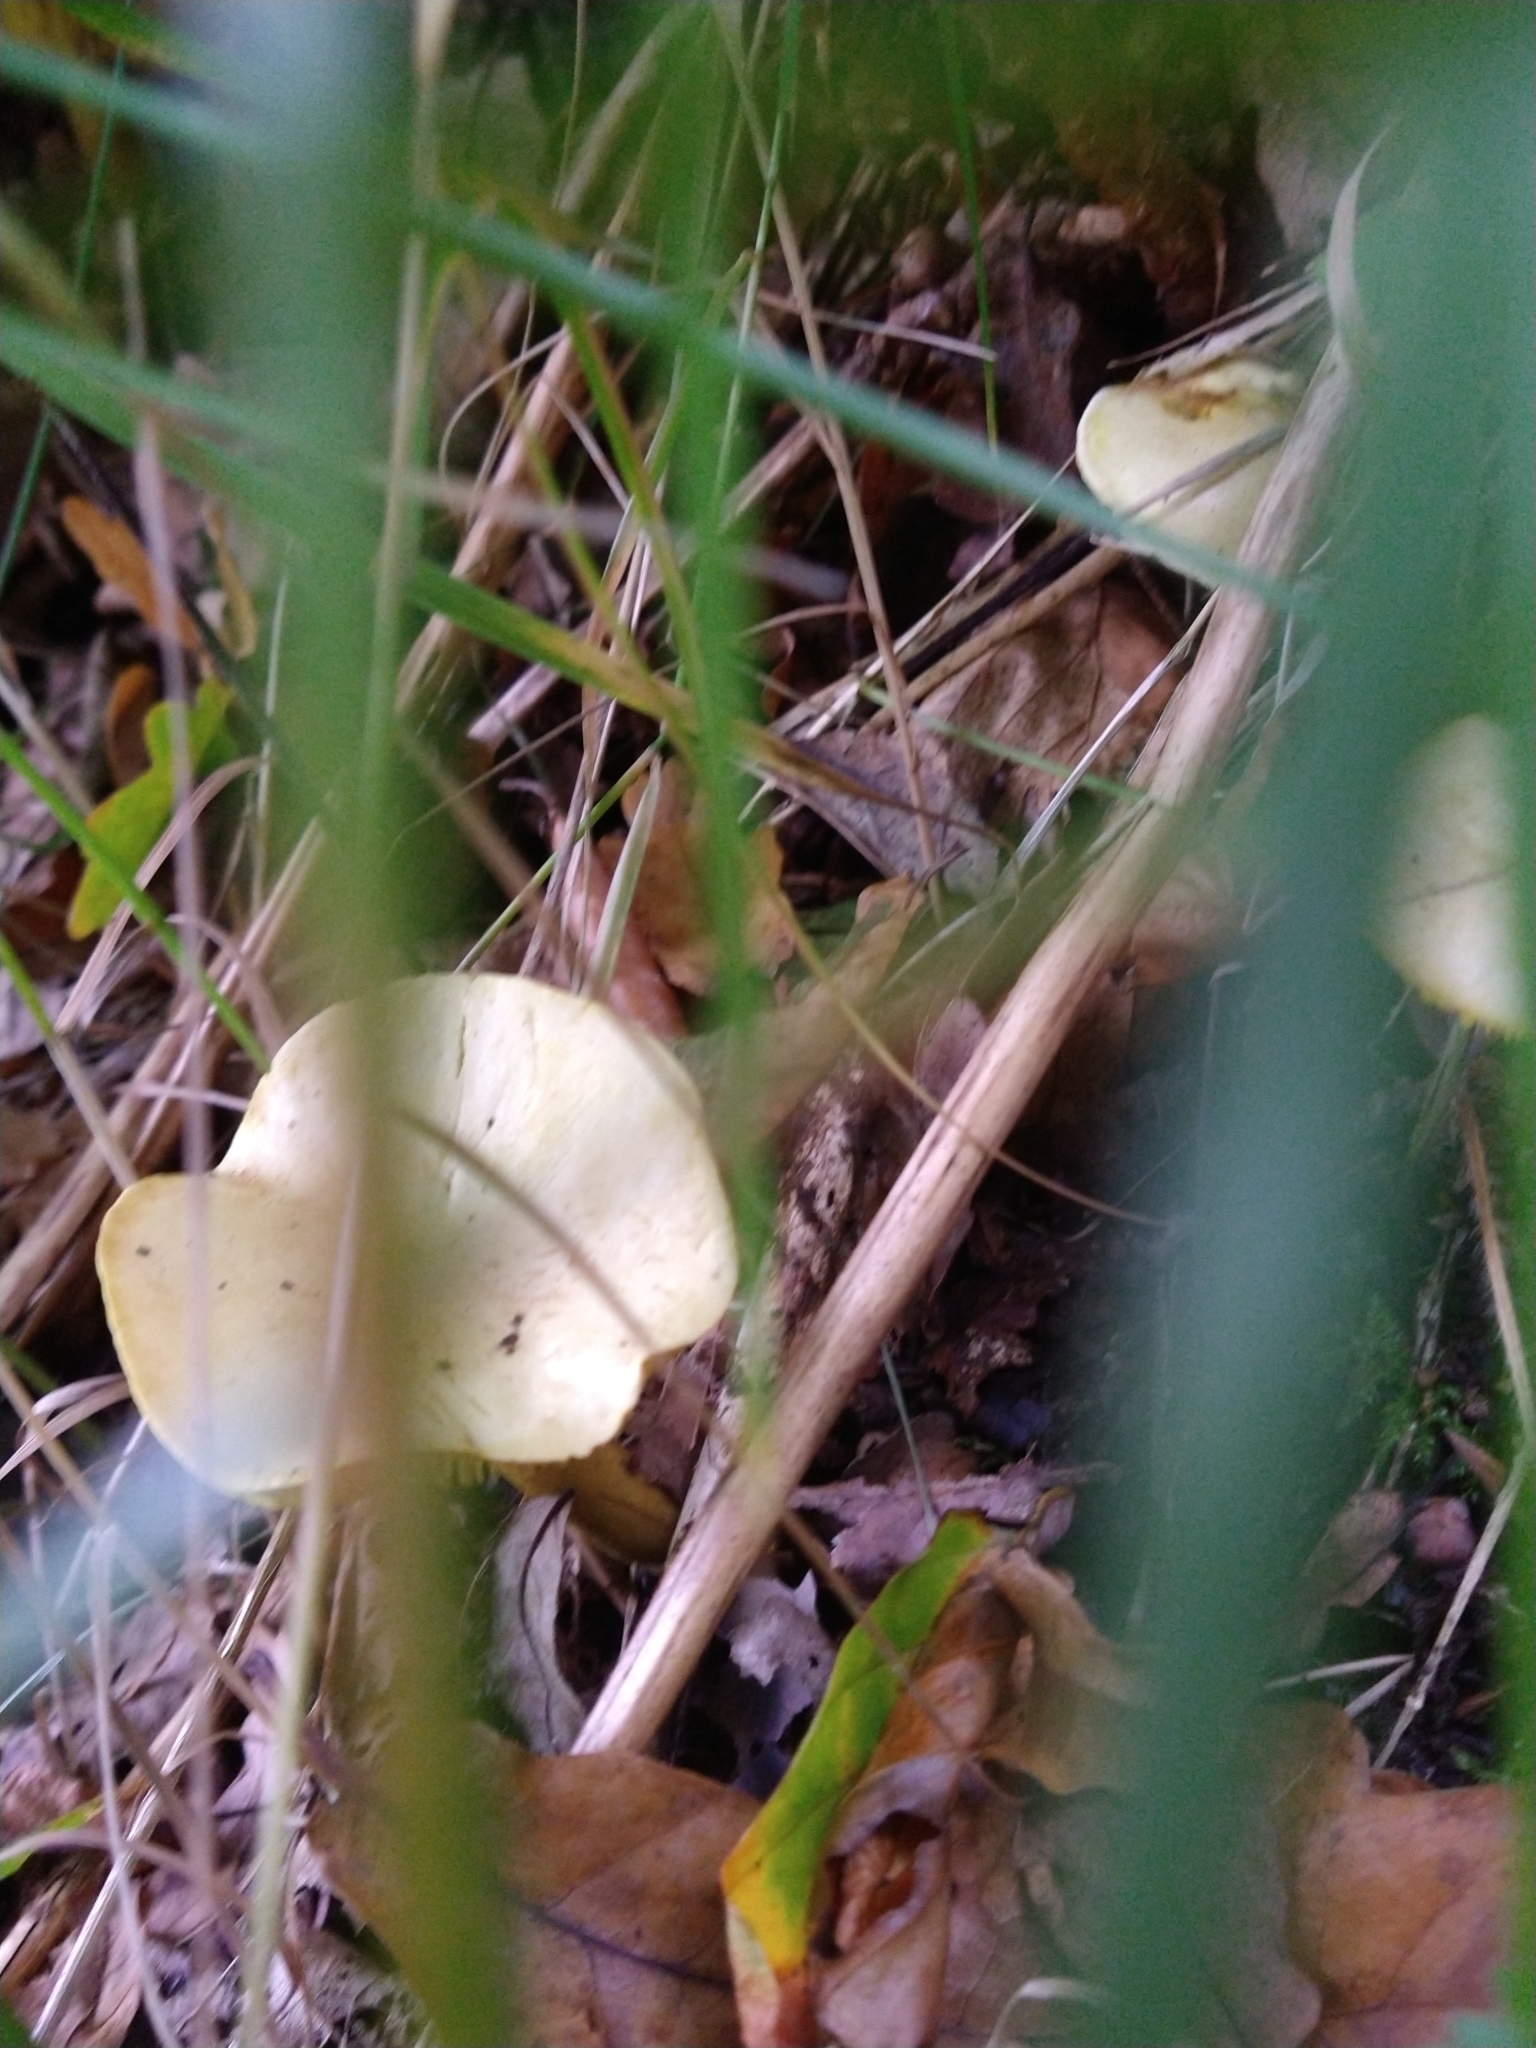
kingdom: Fungi
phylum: Basidiomycota
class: Agaricomycetes
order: Agaricales
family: Tricholomataceae
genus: Tricholoma
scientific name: Tricholoma sulphureum
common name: Stinky knight
